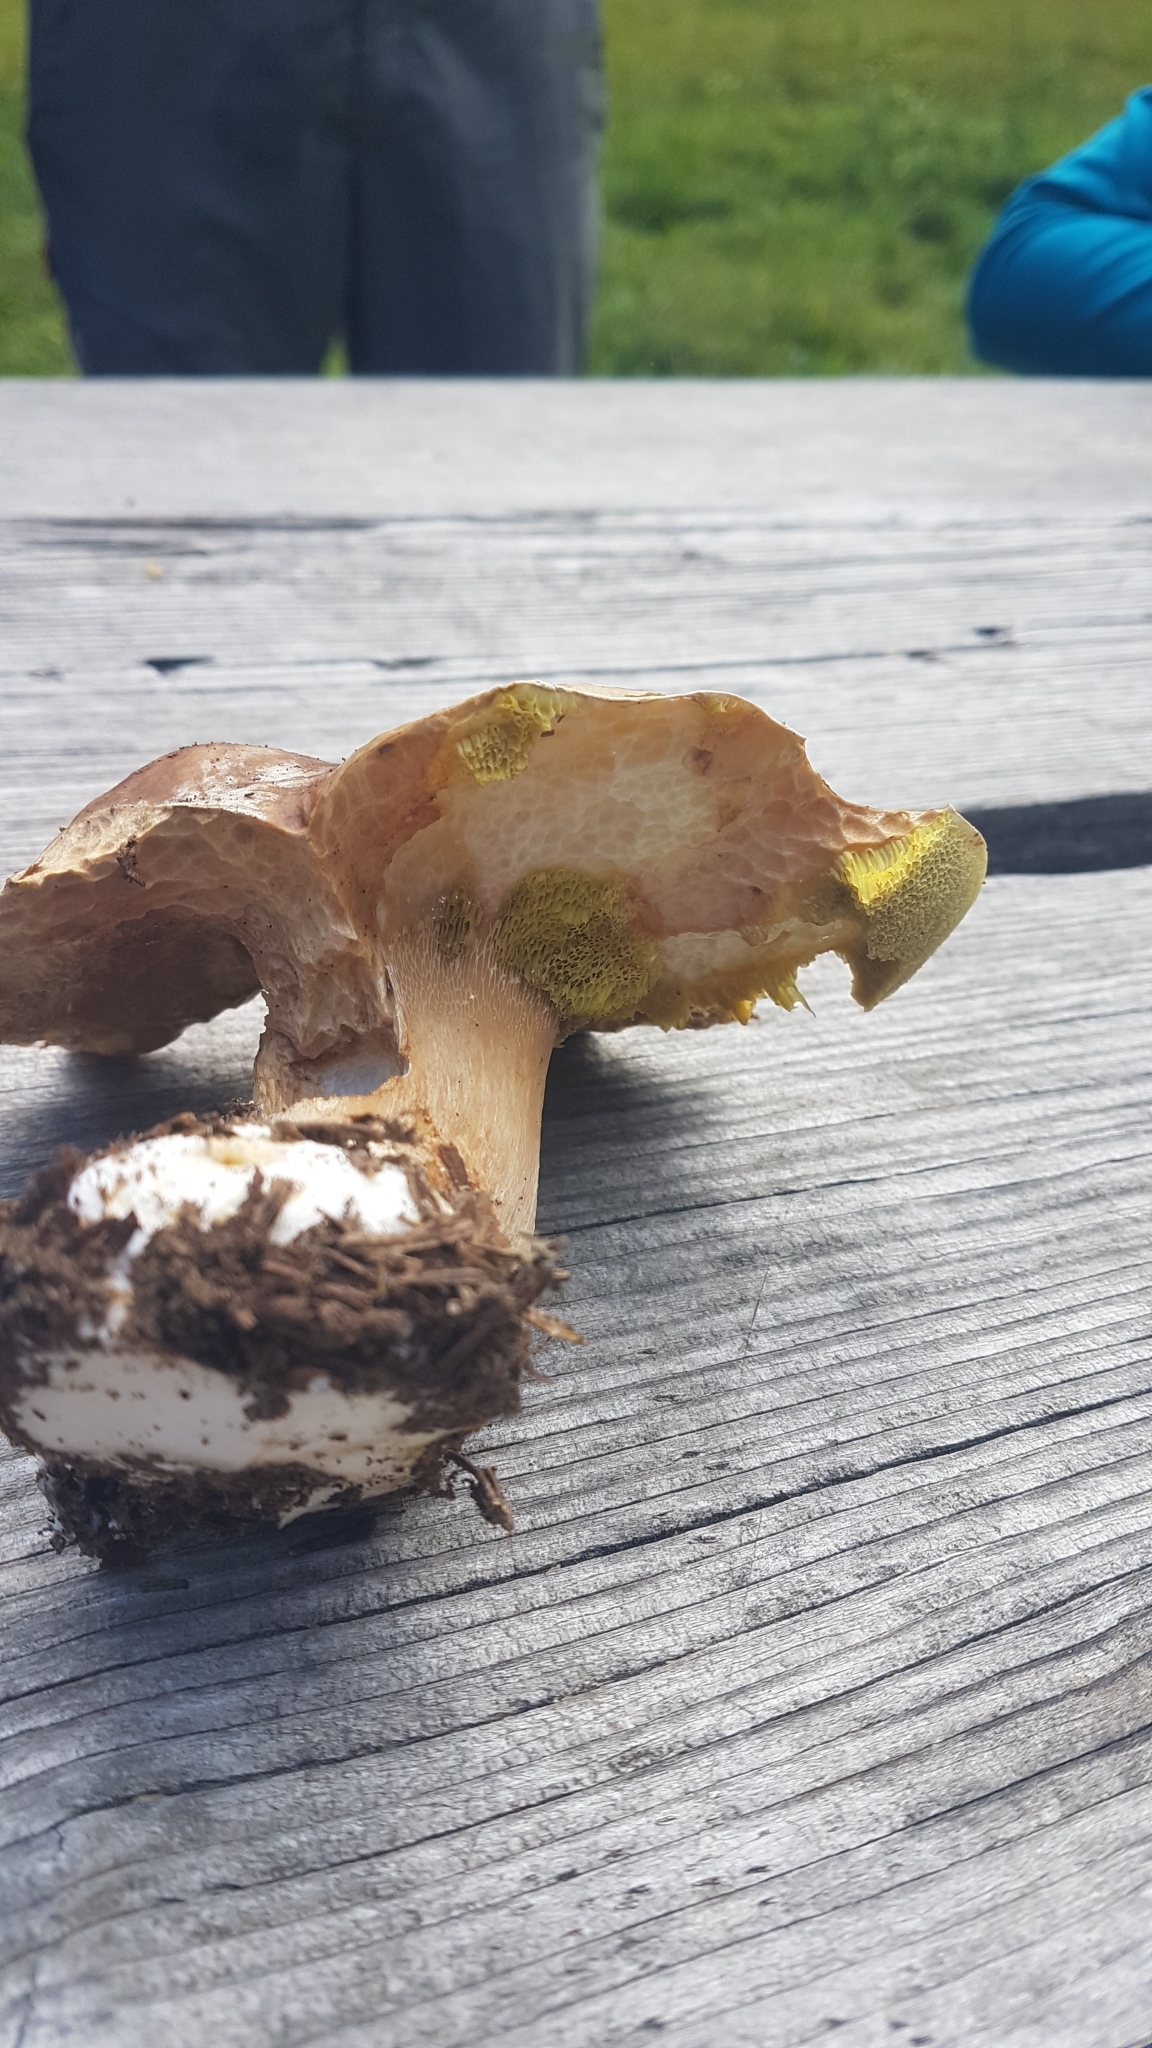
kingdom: Fungi
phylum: Basidiomycota
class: Agaricomycetes
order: Boletales
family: Boletaceae
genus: Boletus
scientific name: Boletus edulis
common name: Cep
